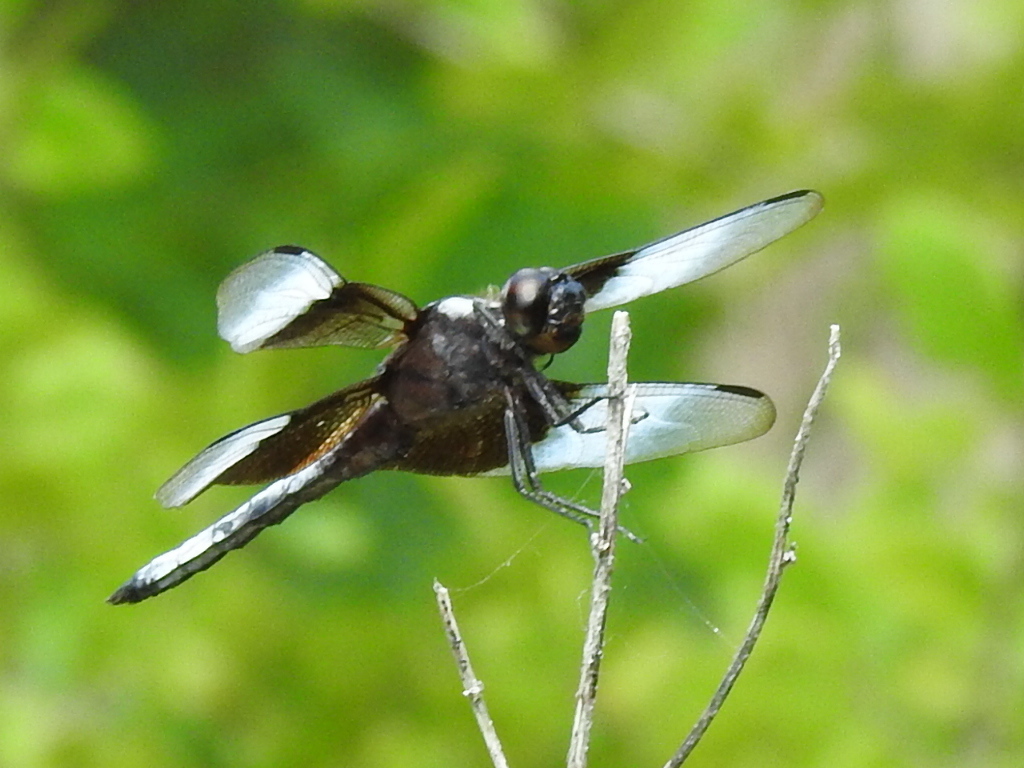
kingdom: Animalia
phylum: Arthropoda
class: Insecta
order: Odonata
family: Libellulidae
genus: Libellula
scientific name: Libellula luctuosa
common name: Widow skimmer
